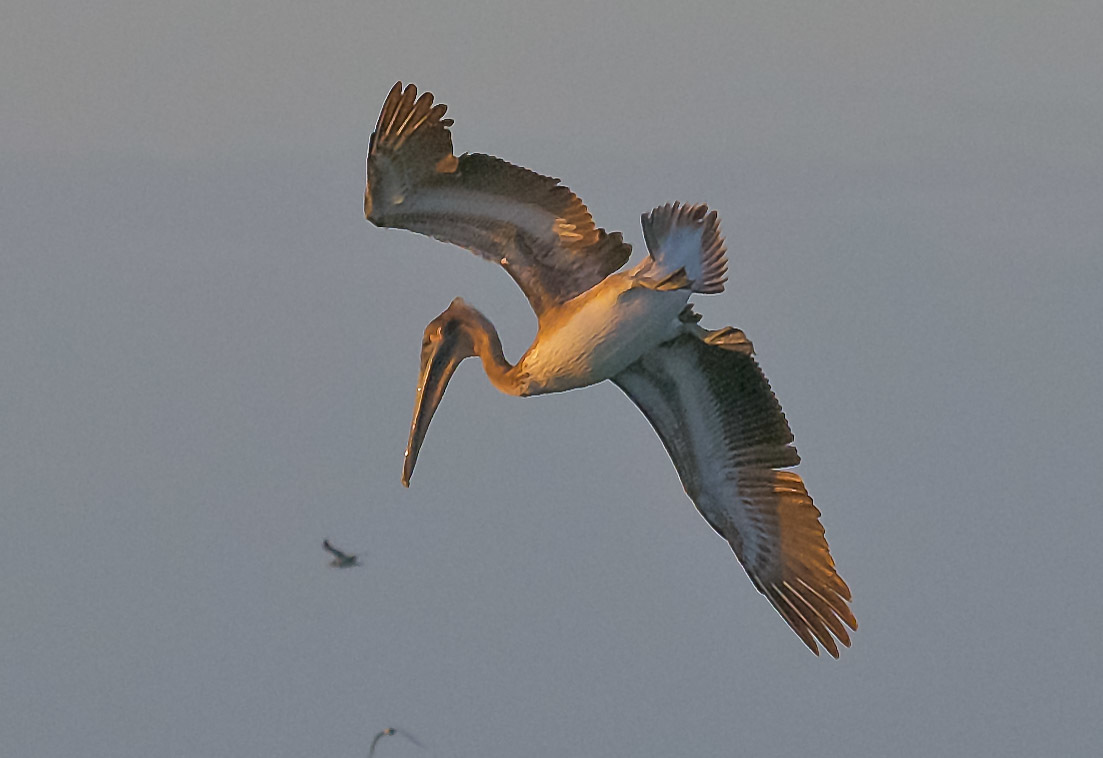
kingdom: Animalia
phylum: Chordata
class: Aves
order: Pelecaniformes
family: Pelecanidae
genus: Pelecanus
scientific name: Pelecanus occidentalis
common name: Brown pelican
